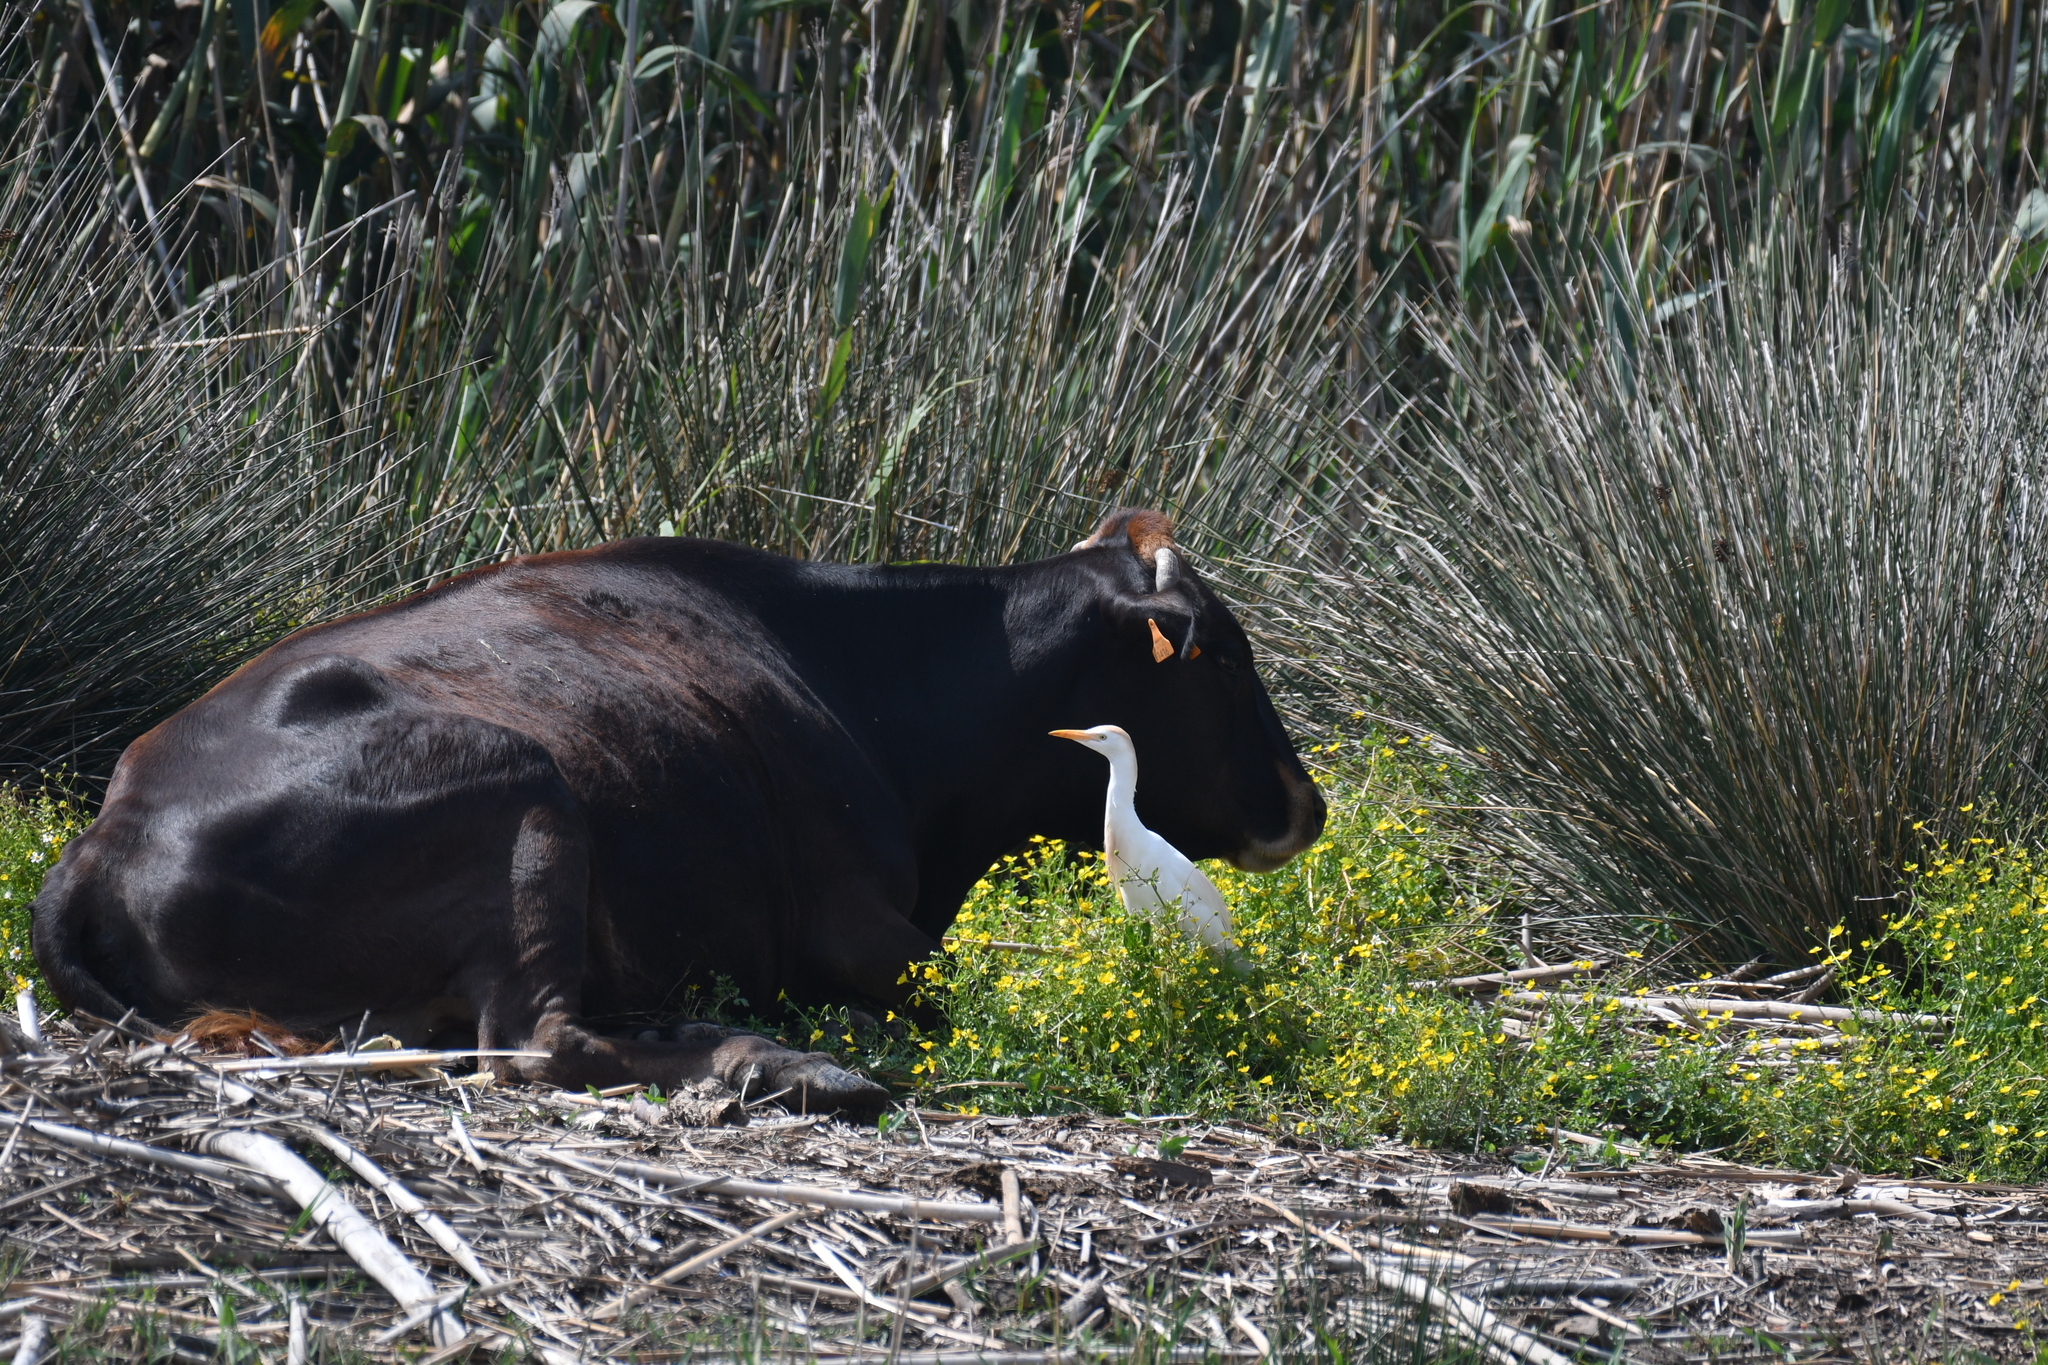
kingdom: Animalia
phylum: Chordata
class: Aves
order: Pelecaniformes
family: Ardeidae
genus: Bubulcus
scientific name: Bubulcus ibis
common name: Cattle egret
